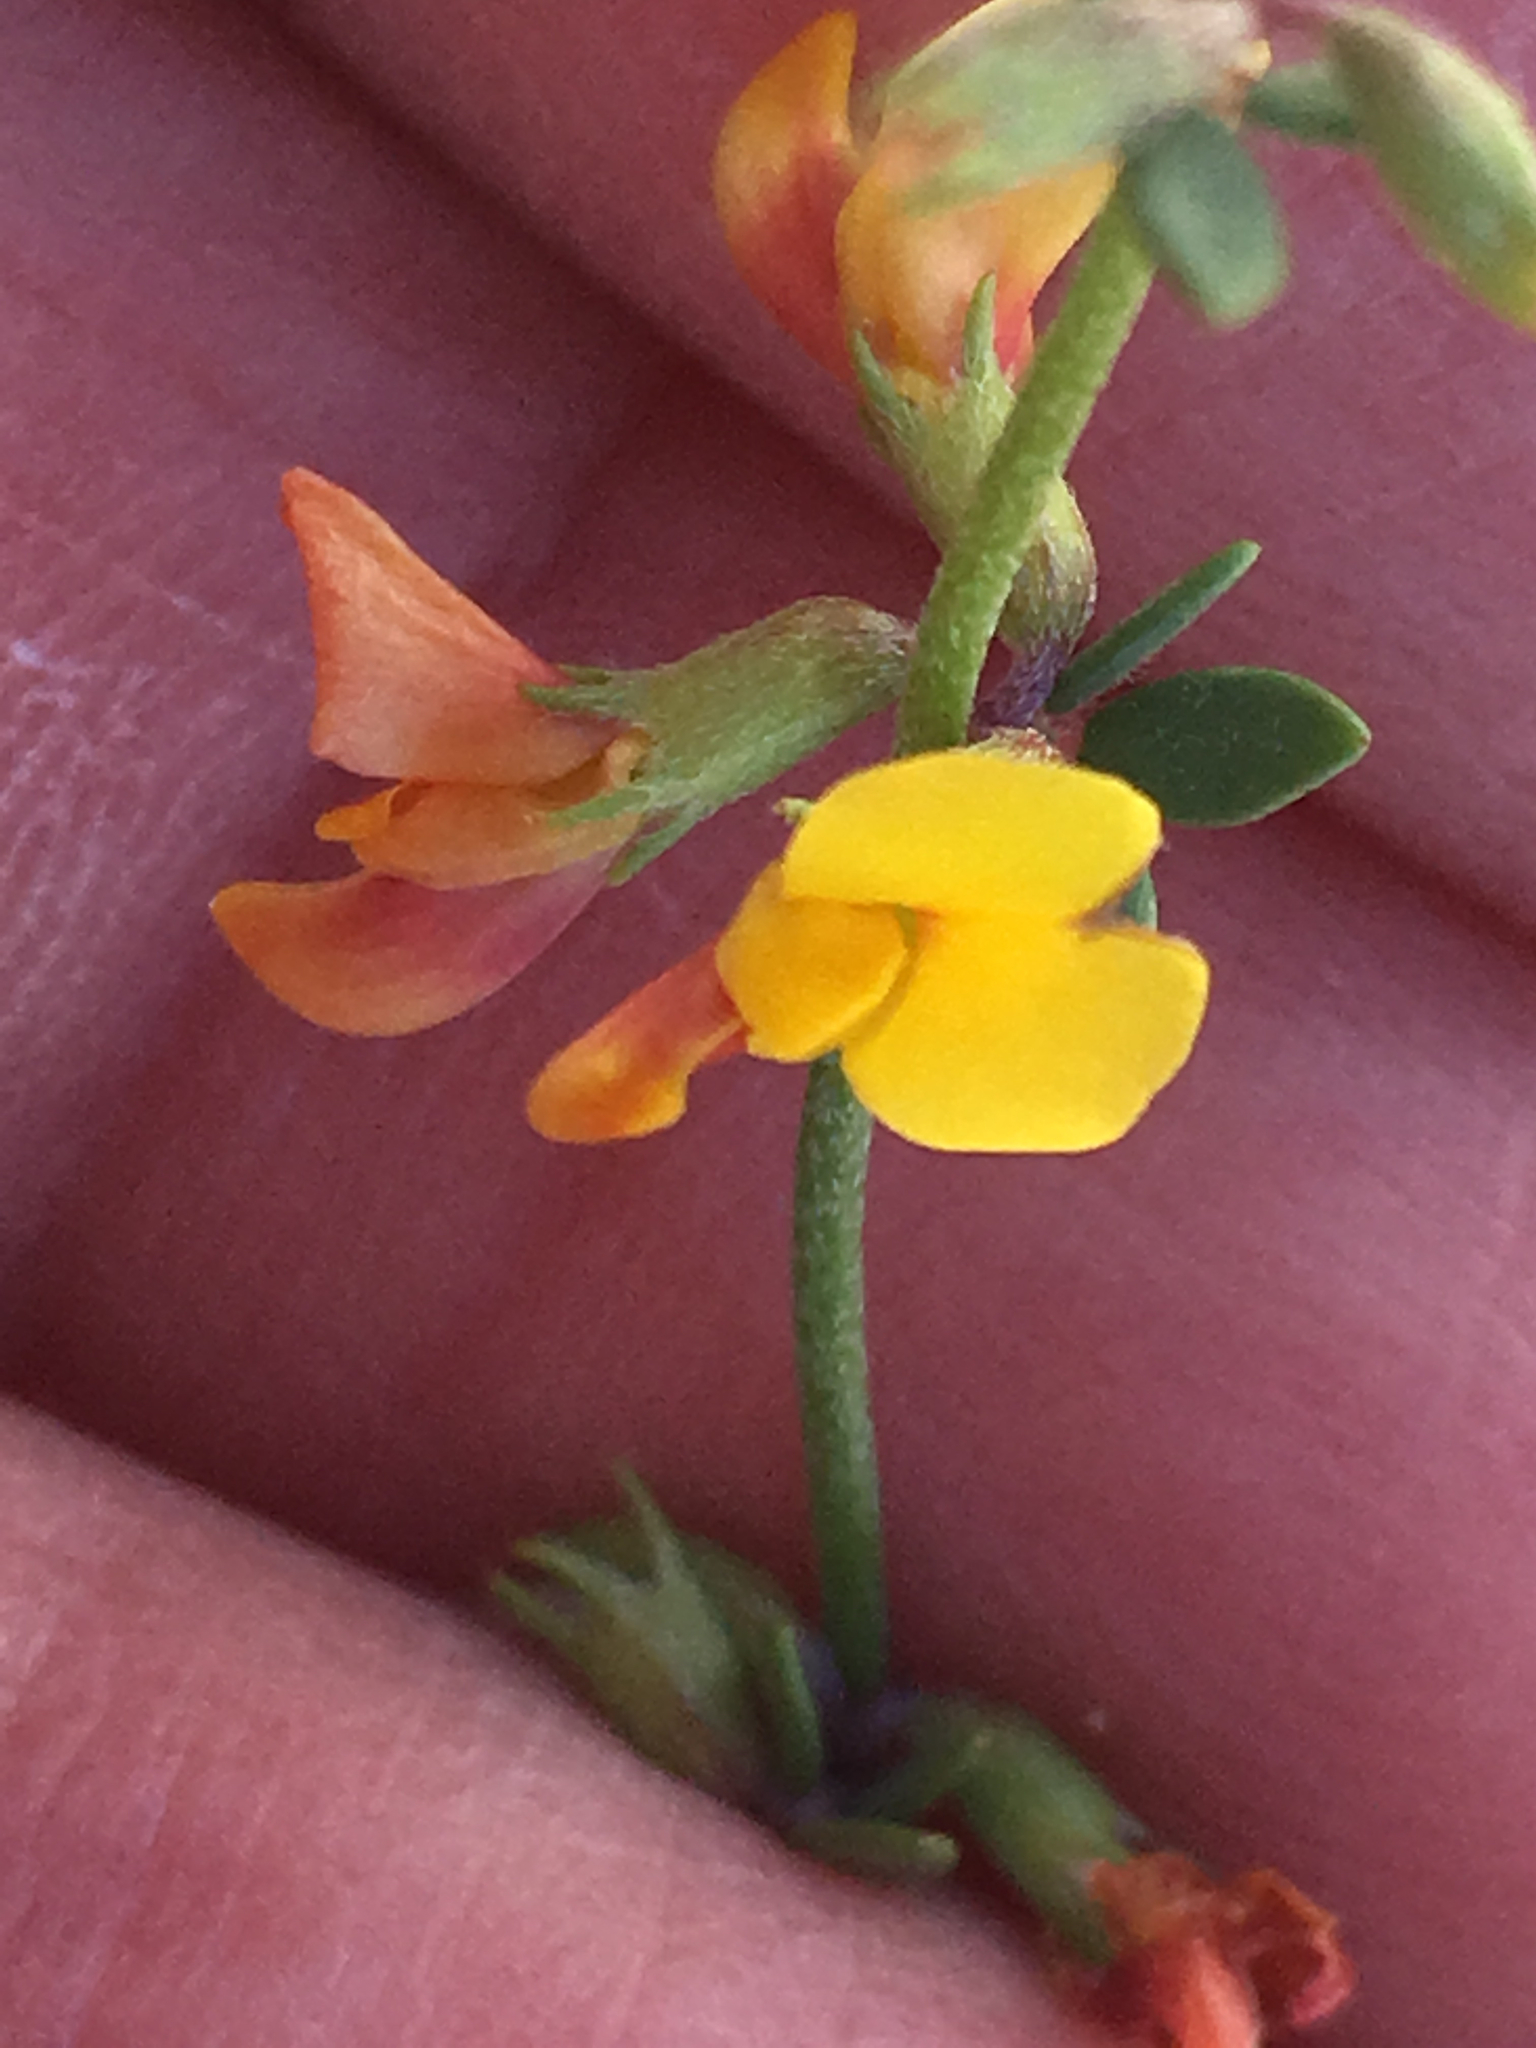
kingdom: Plantae
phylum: Tracheophyta
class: Magnoliopsida
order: Fabales
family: Fabaceae
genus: Acmispon
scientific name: Acmispon glaber
